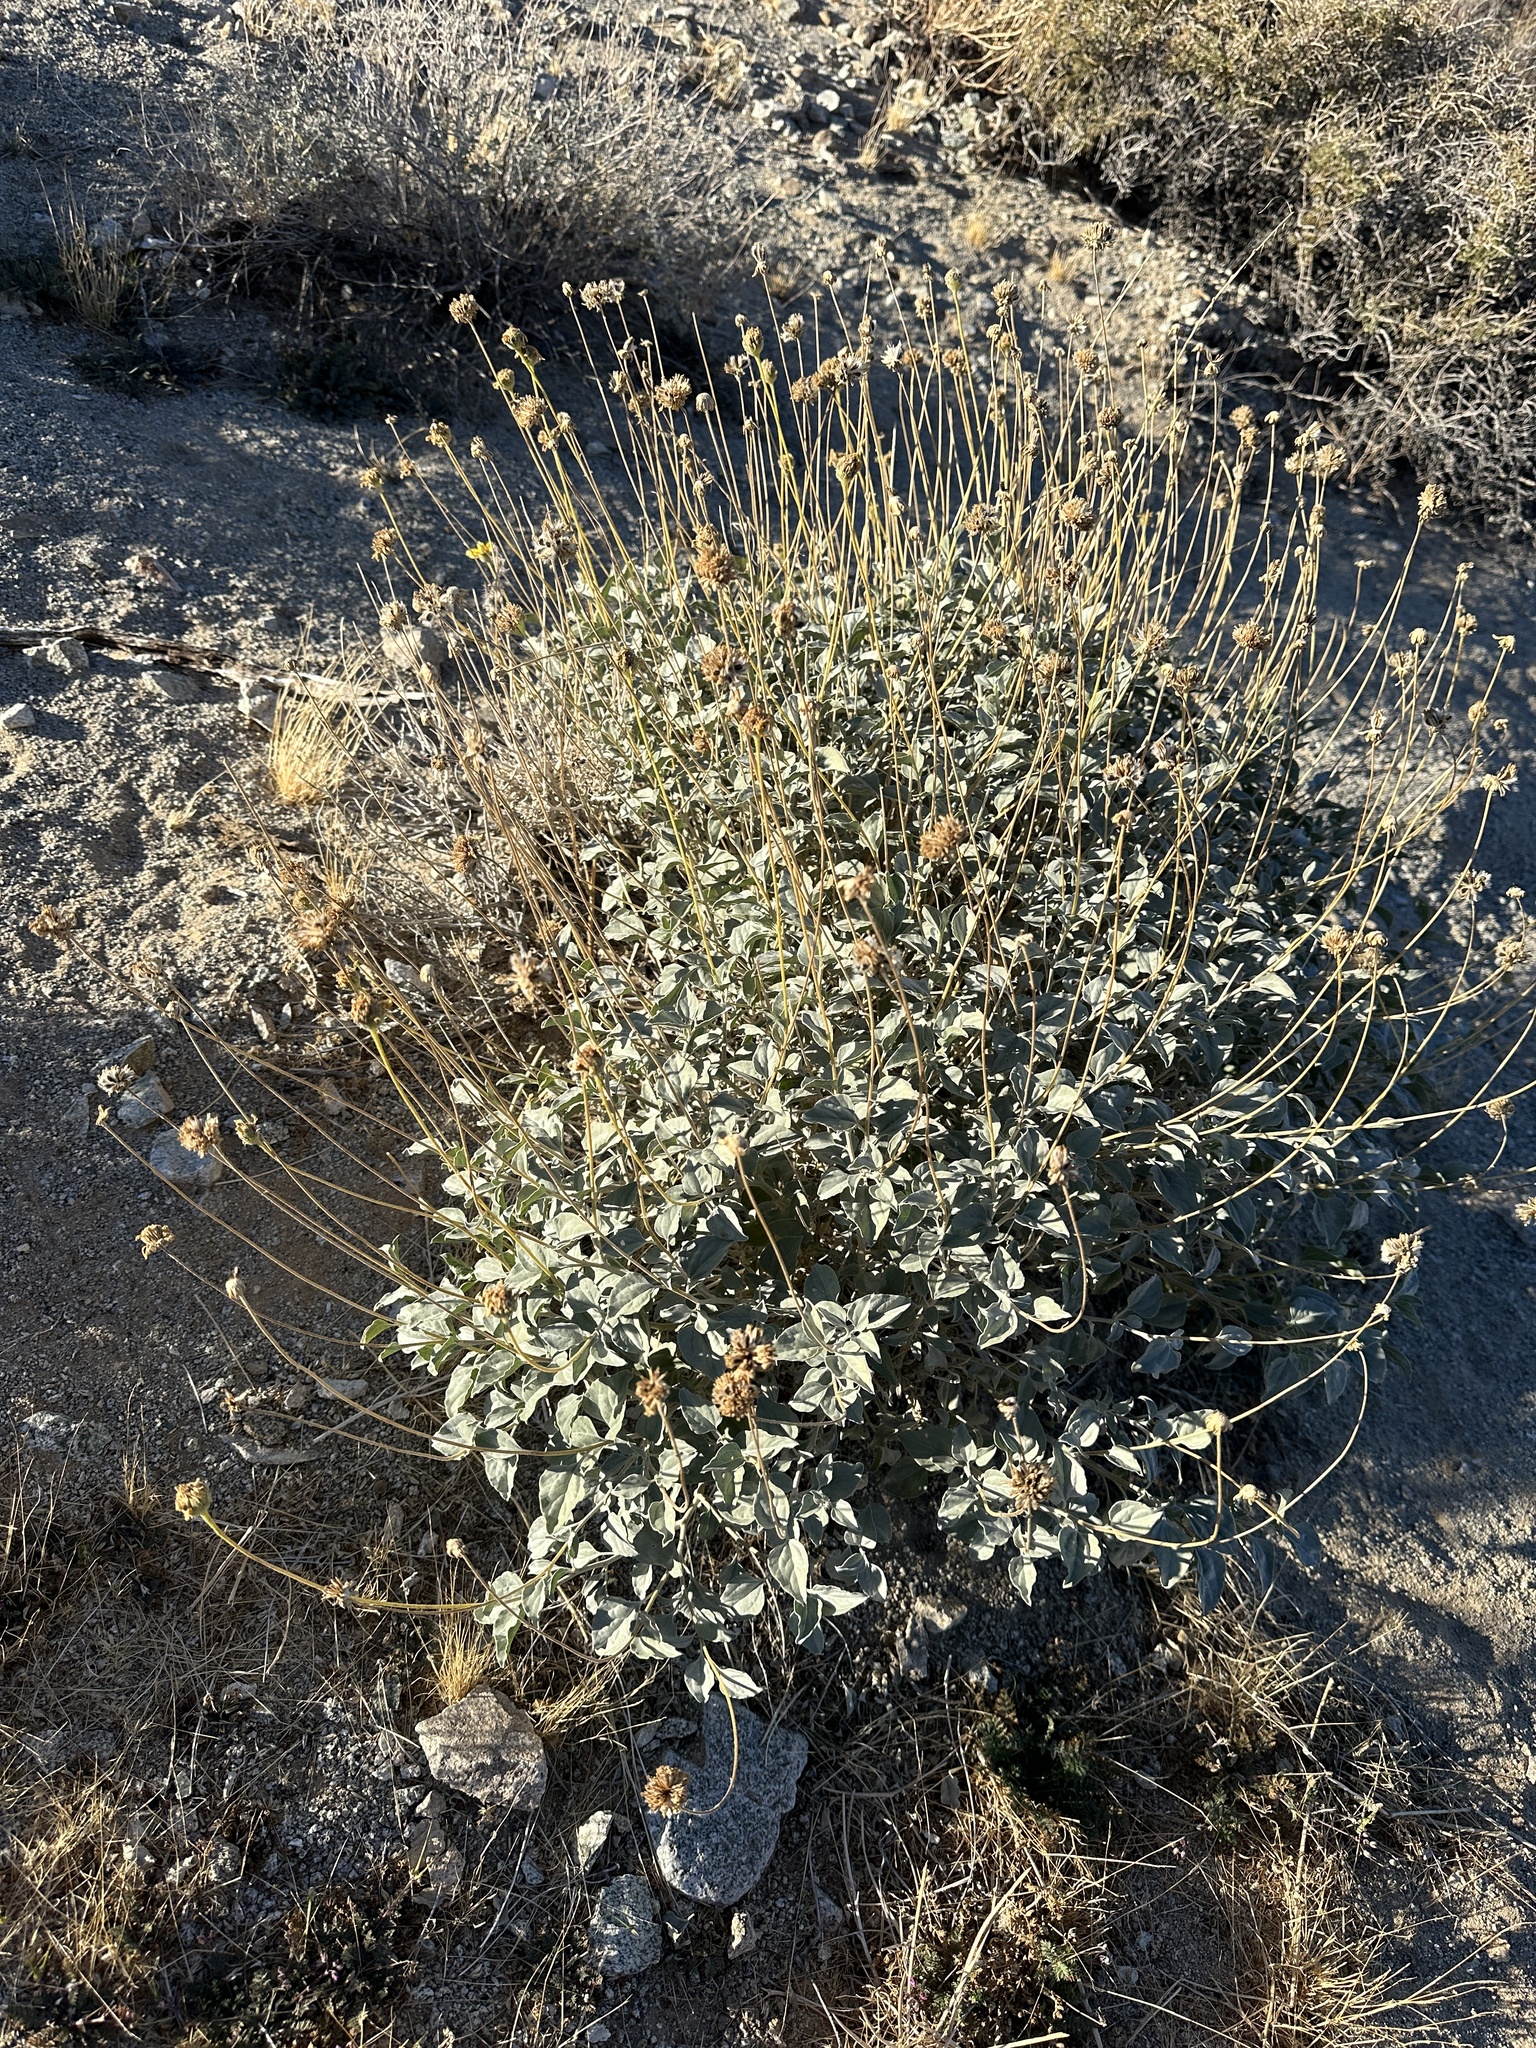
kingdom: Plantae
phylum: Tracheophyta
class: Magnoliopsida
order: Asterales
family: Asteraceae
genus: Encelia
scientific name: Encelia actoni
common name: Acton encelia
